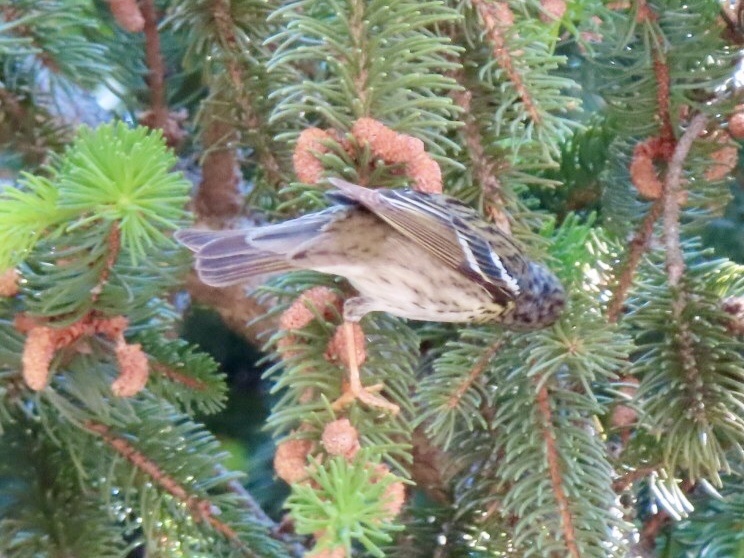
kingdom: Animalia
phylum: Chordata
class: Aves
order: Passeriformes
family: Parulidae
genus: Setophaga
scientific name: Setophaga striata
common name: Blackpoll warbler
